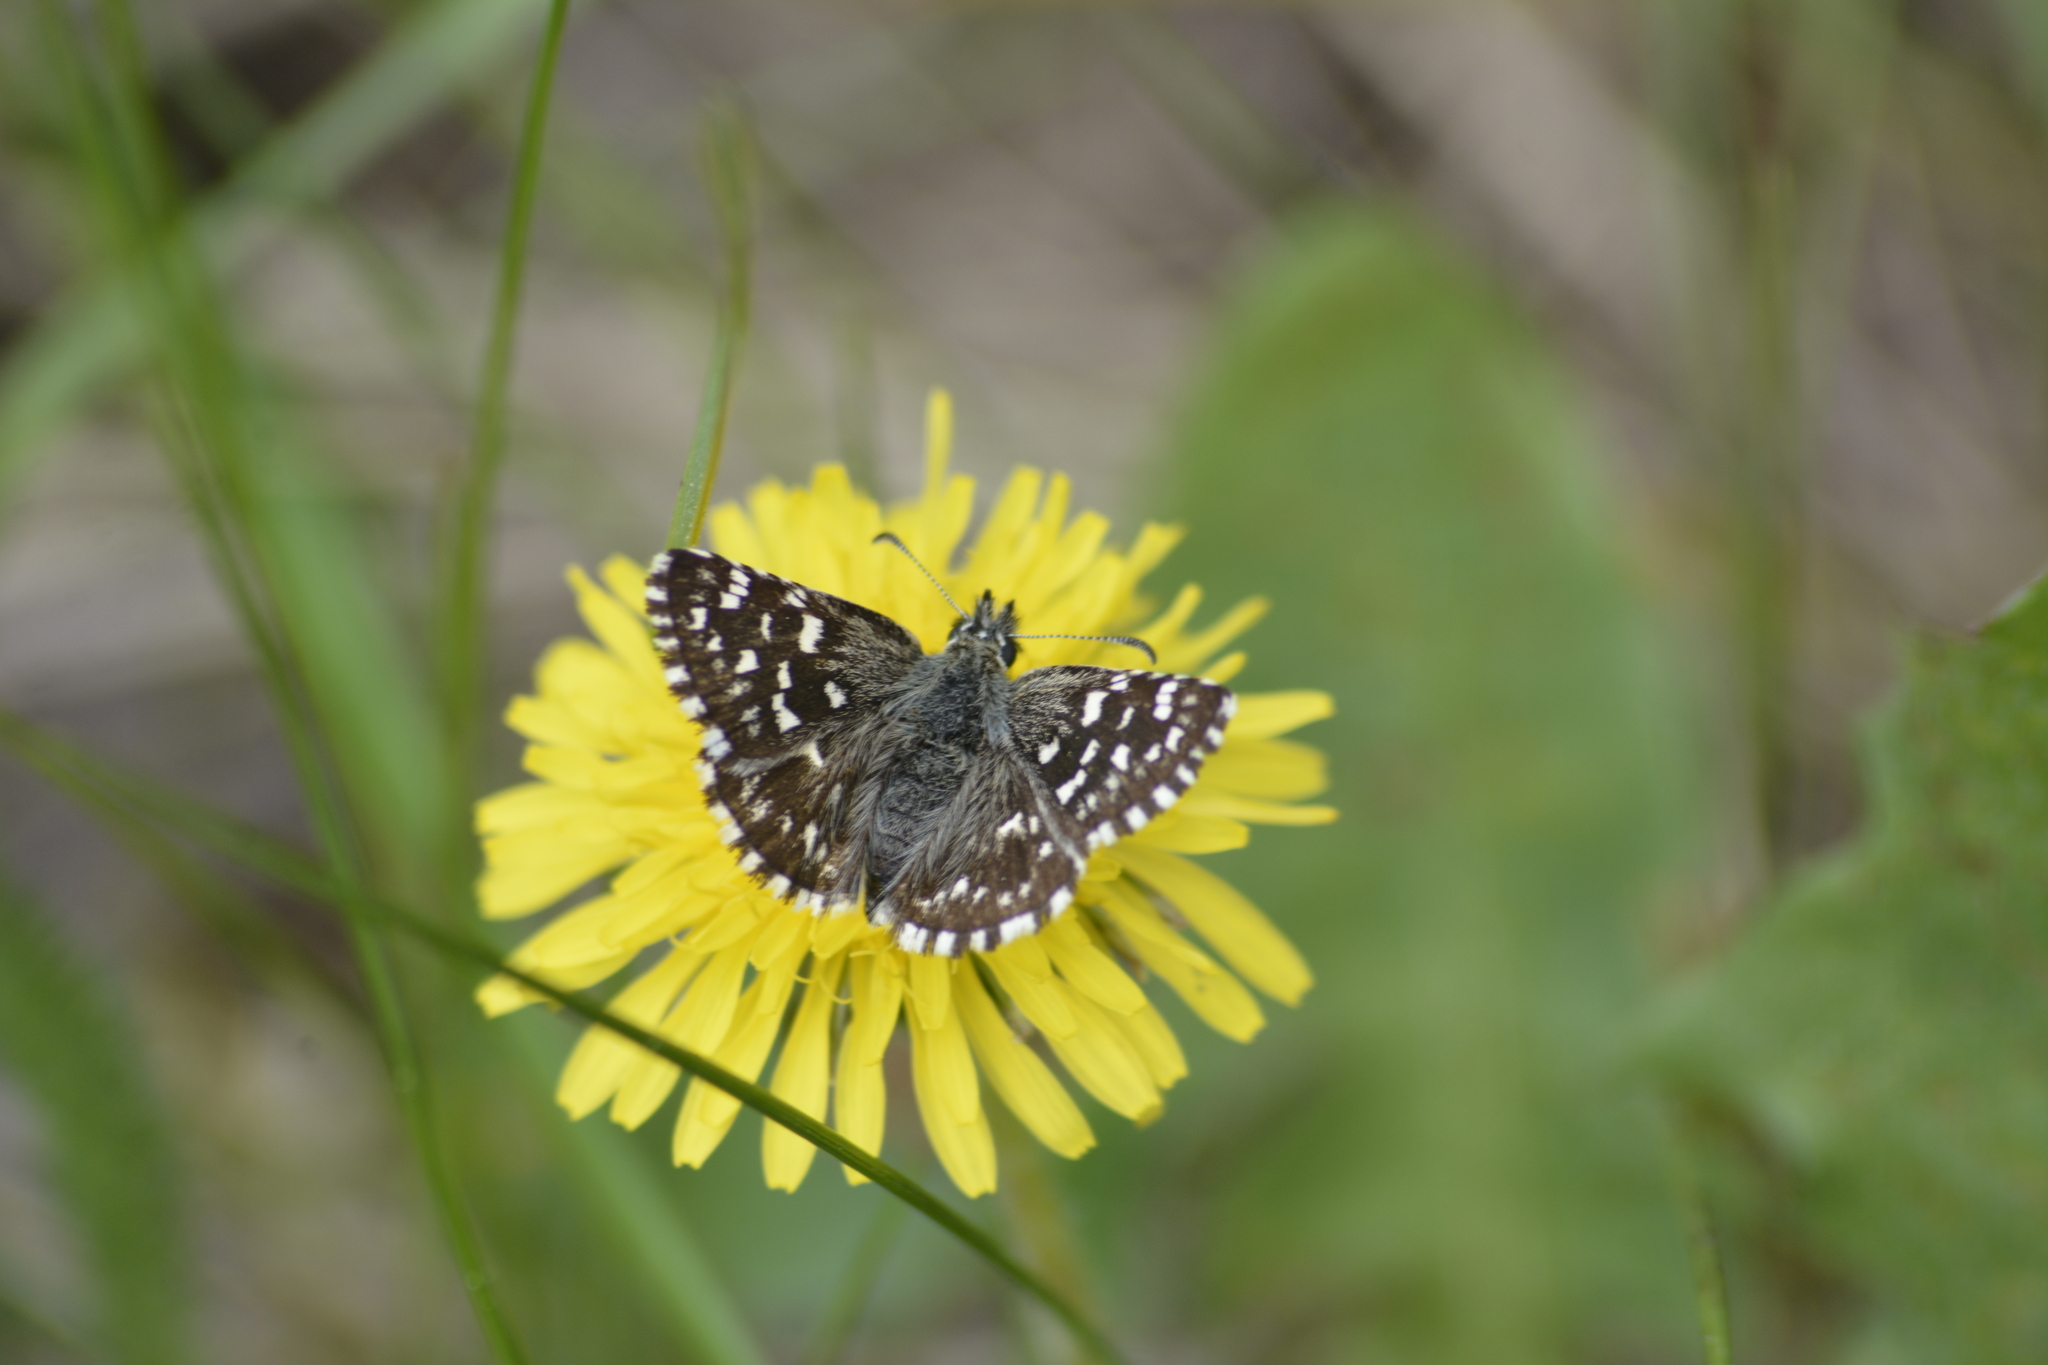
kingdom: Animalia
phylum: Arthropoda
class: Insecta
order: Lepidoptera
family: Hesperiidae
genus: Pyrgus
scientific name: Pyrgus malvae
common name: Grizzled skipper
